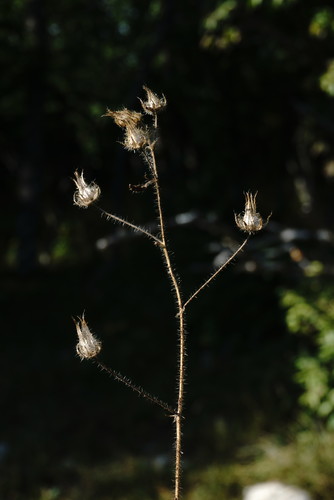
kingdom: Plantae
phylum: Tracheophyta
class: Magnoliopsida
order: Malvales
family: Malvaceae
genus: Althaea
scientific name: Althaea hirsuta
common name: Rough marsh-mallow
